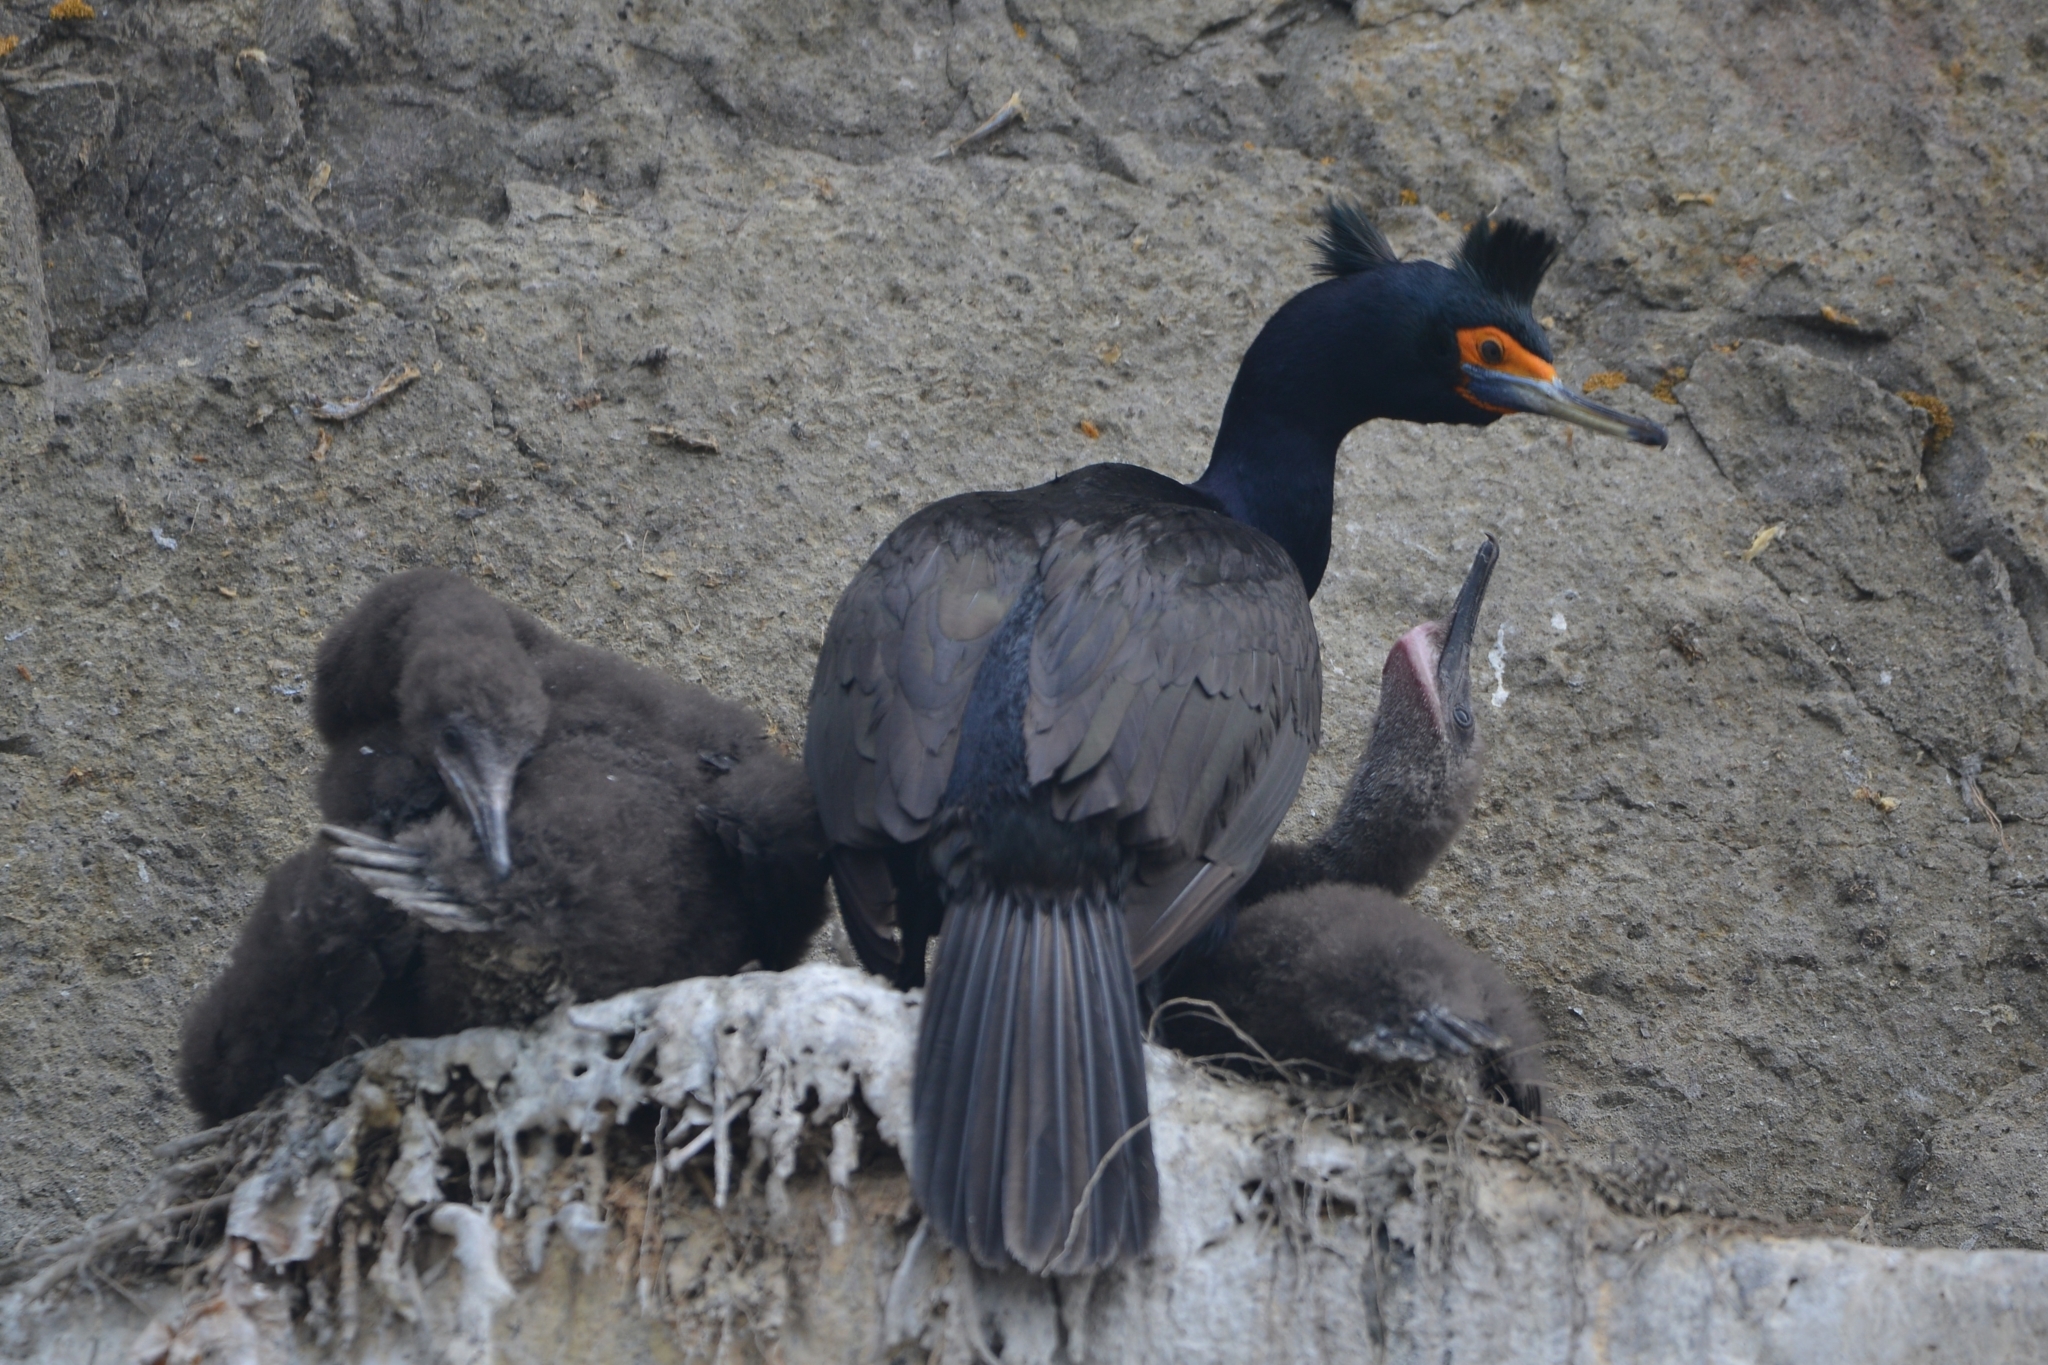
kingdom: Animalia
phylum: Chordata
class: Aves
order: Suliformes
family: Phalacrocoracidae
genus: Phalacrocorax
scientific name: Phalacrocorax urile
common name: Red-faced cormorant
